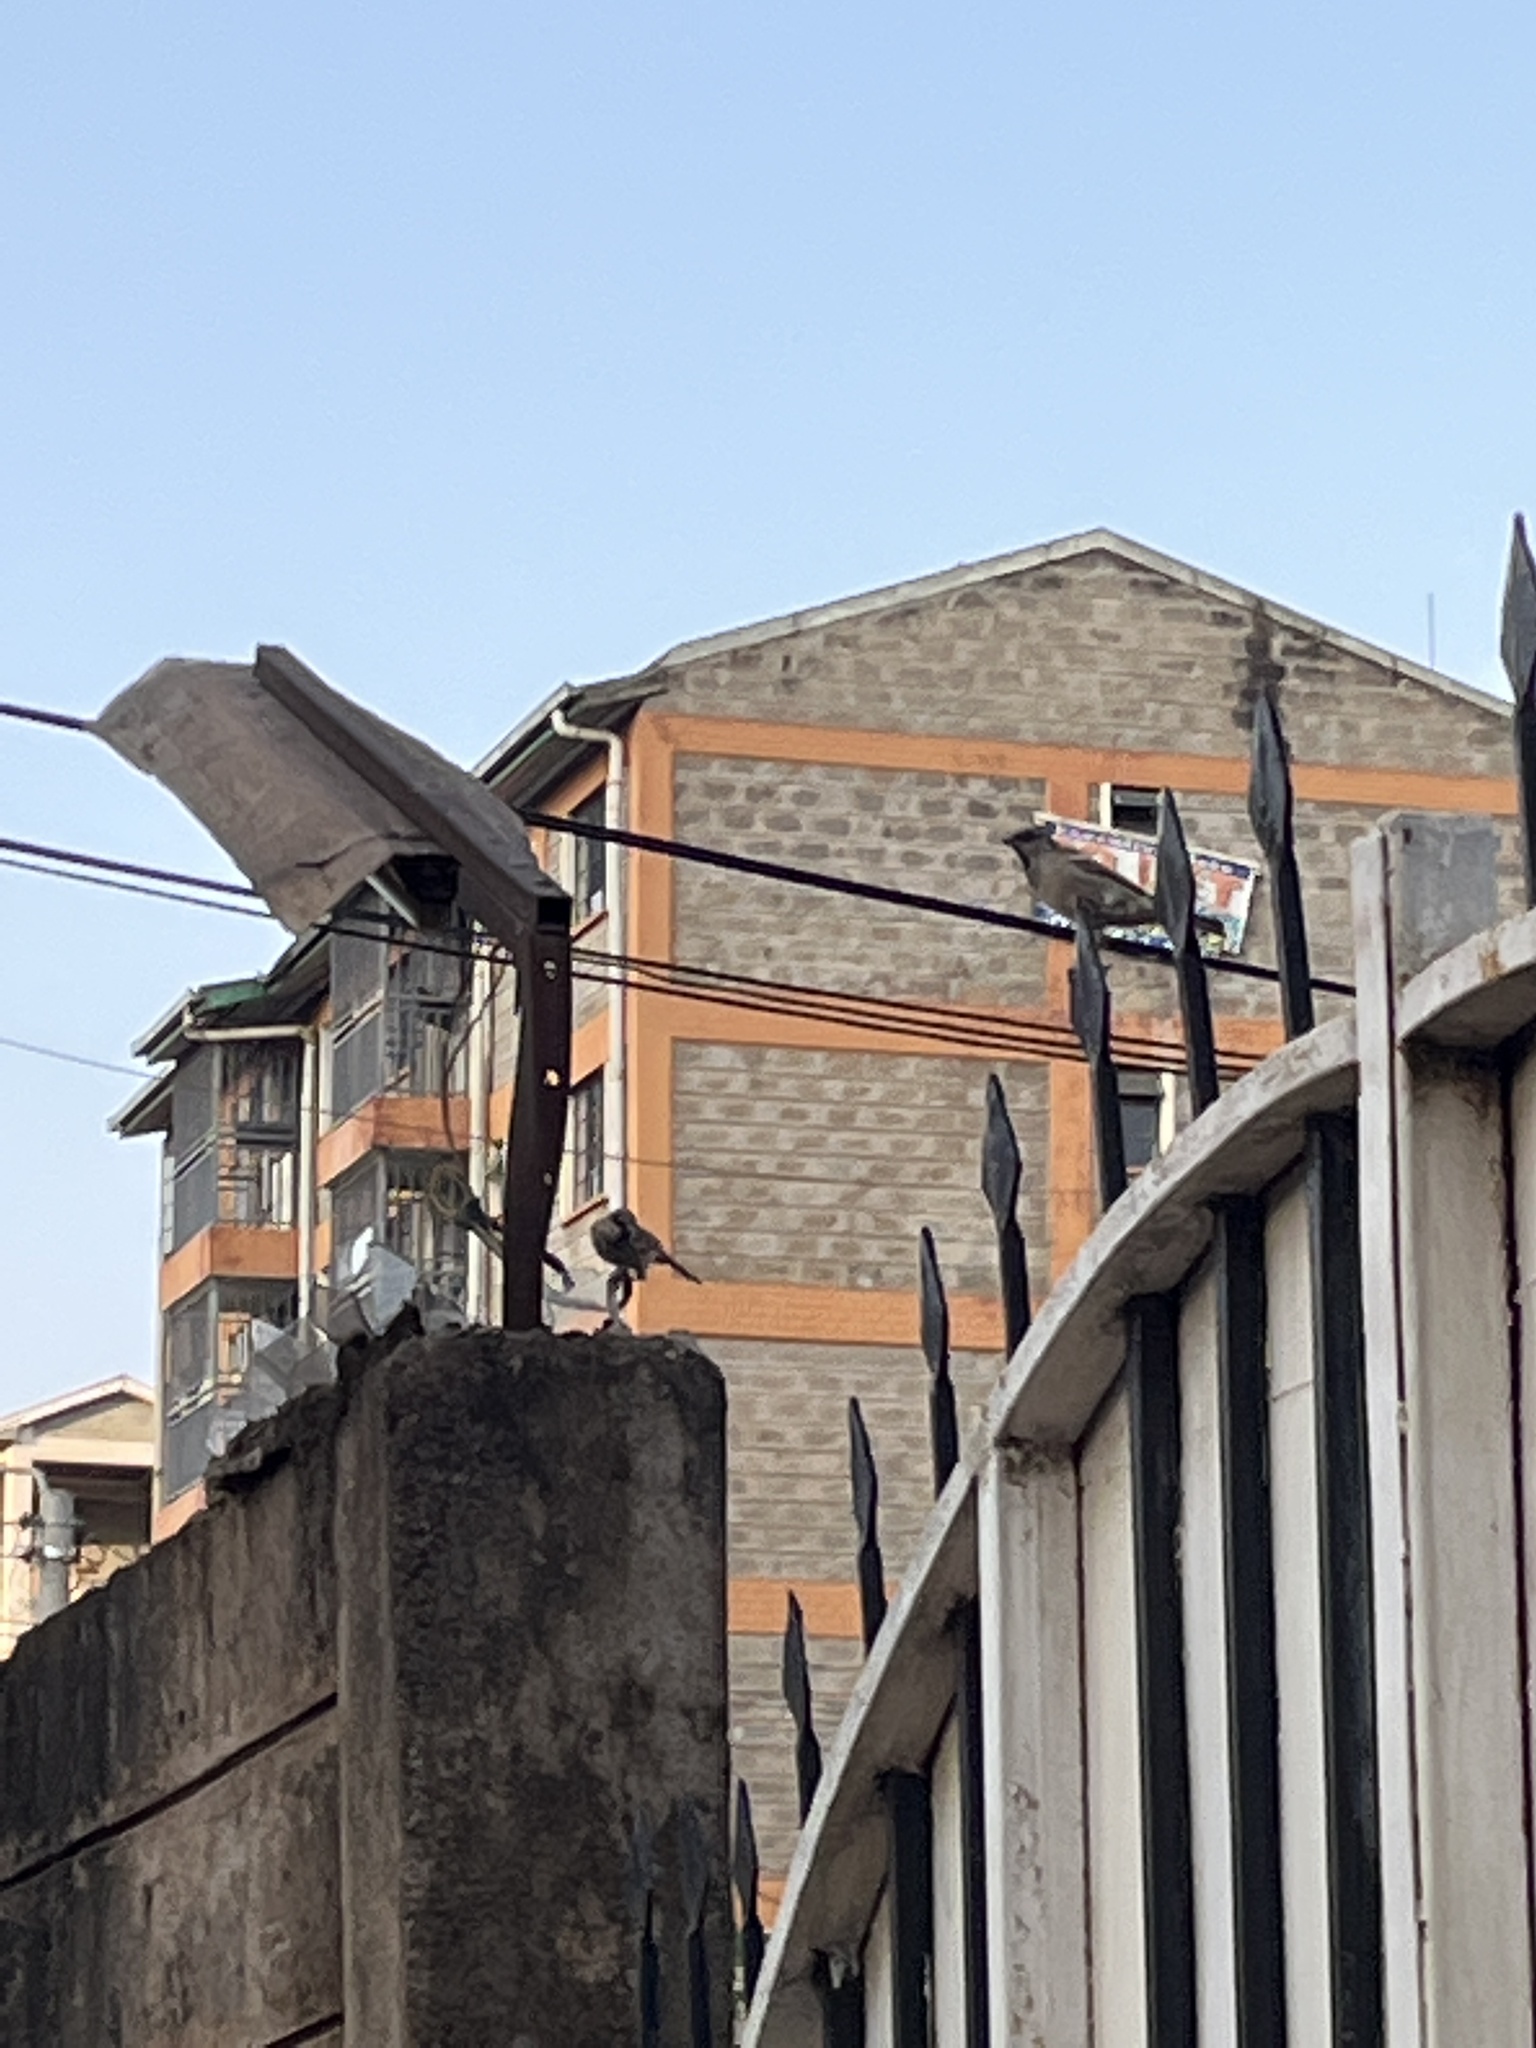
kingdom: Animalia
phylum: Chordata
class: Aves
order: Passeriformes
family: Passeridae
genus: Passer
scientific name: Passer domesticus
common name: House sparrow
